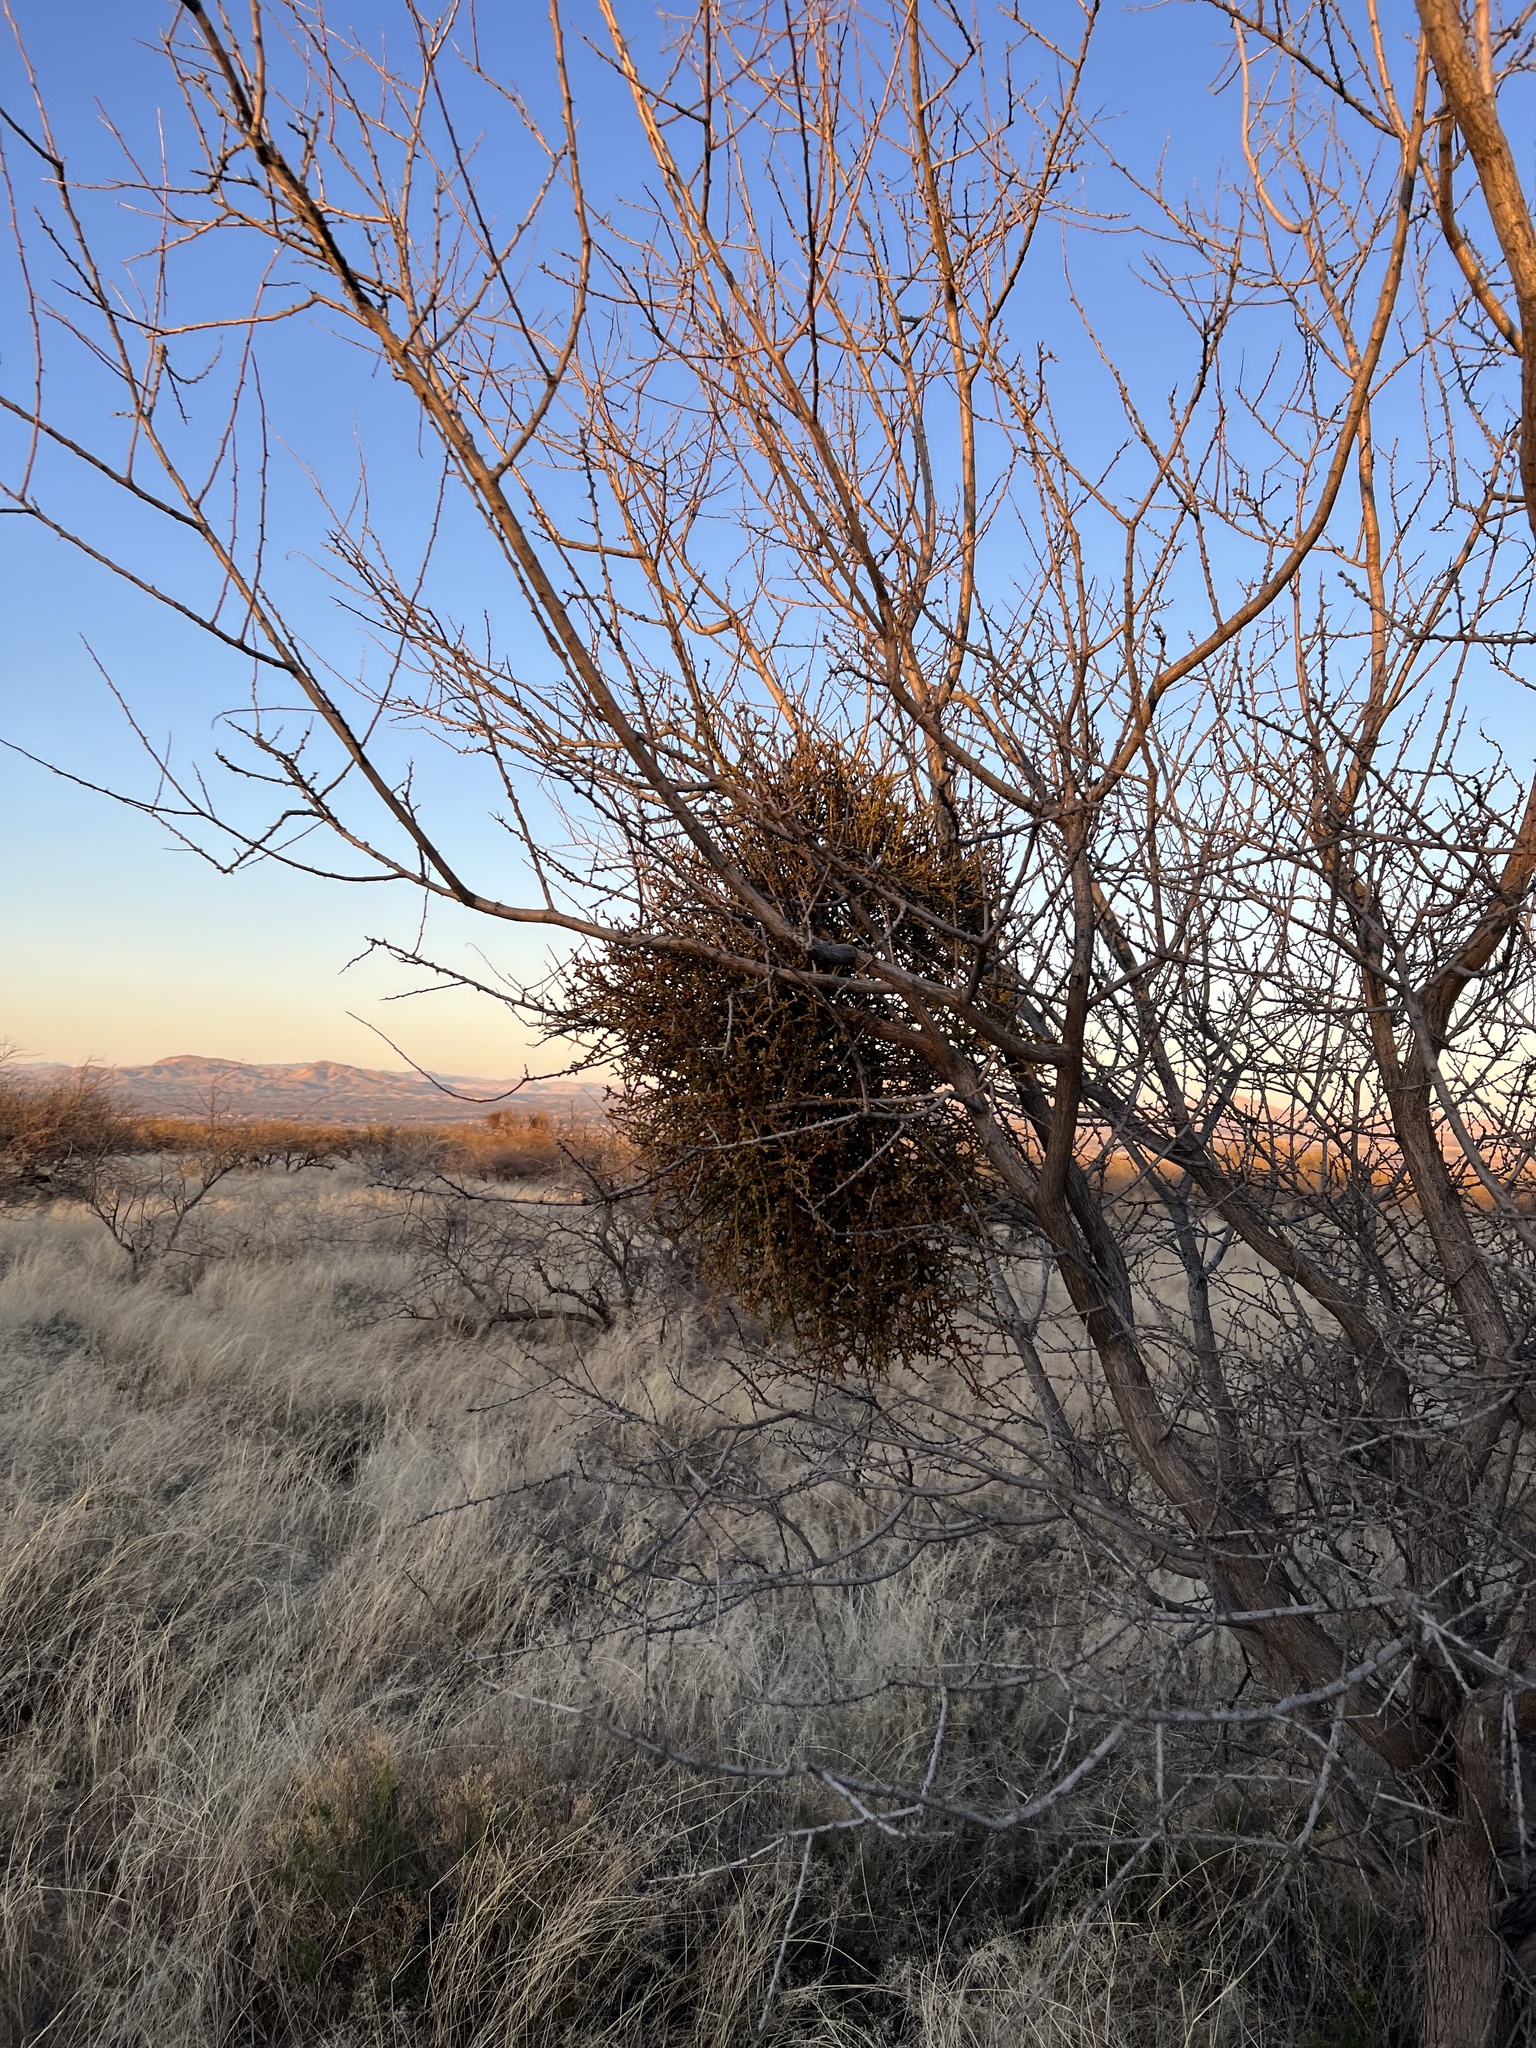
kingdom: Plantae
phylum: Tracheophyta
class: Magnoliopsida
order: Santalales
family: Viscaceae
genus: Phoradendron
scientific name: Phoradendron californicum
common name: Acacia mistletoe
